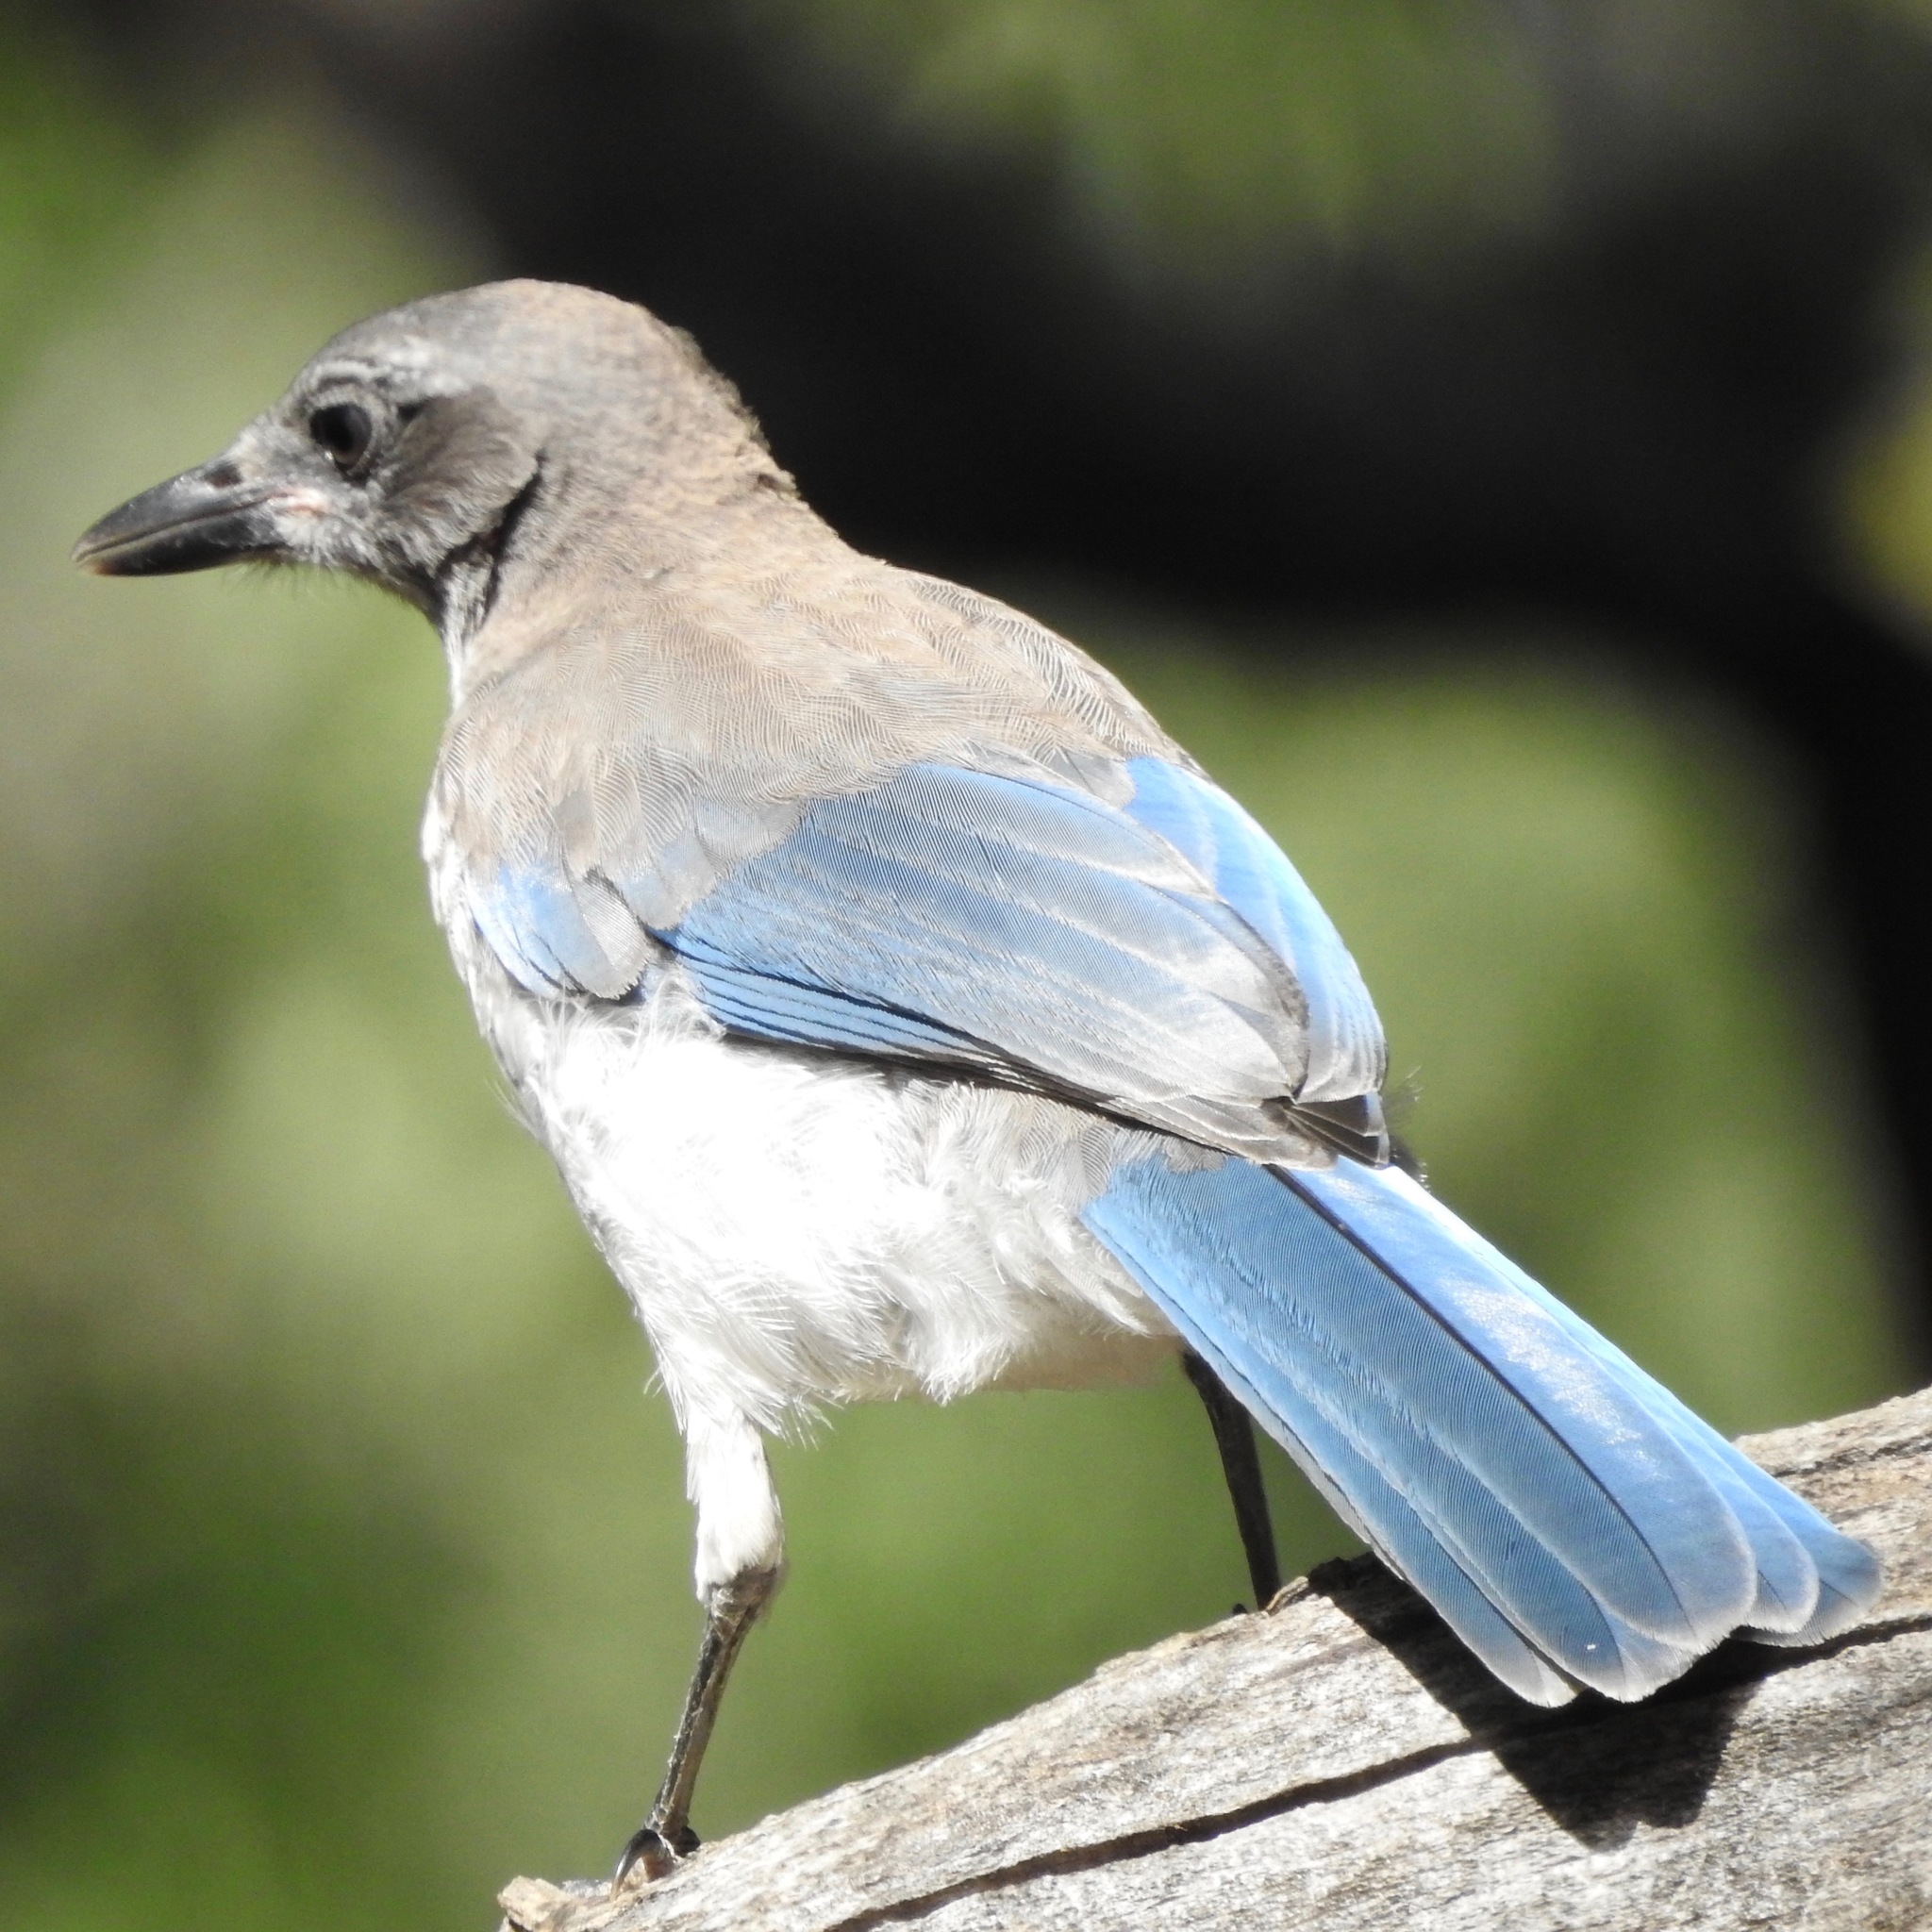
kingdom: Animalia
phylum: Chordata
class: Aves
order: Passeriformes
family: Corvidae
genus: Aphelocoma
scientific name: Aphelocoma californica
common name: California scrub-jay
